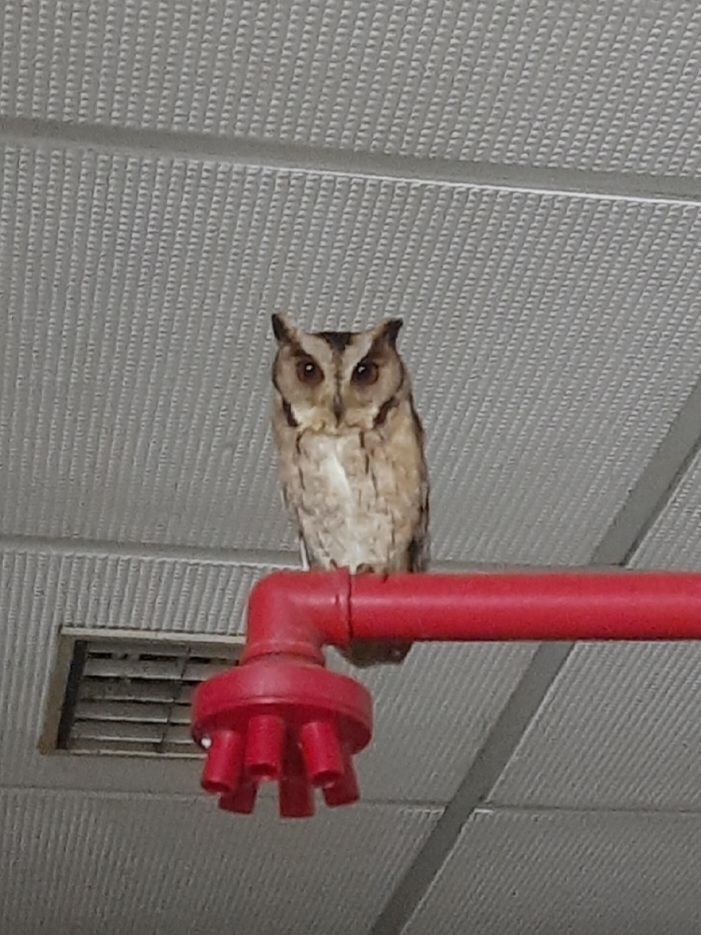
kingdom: Animalia
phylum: Chordata
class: Aves
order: Strigiformes
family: Strigidae
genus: Otus
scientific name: Otus bakkamoena
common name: Indian scops owl
